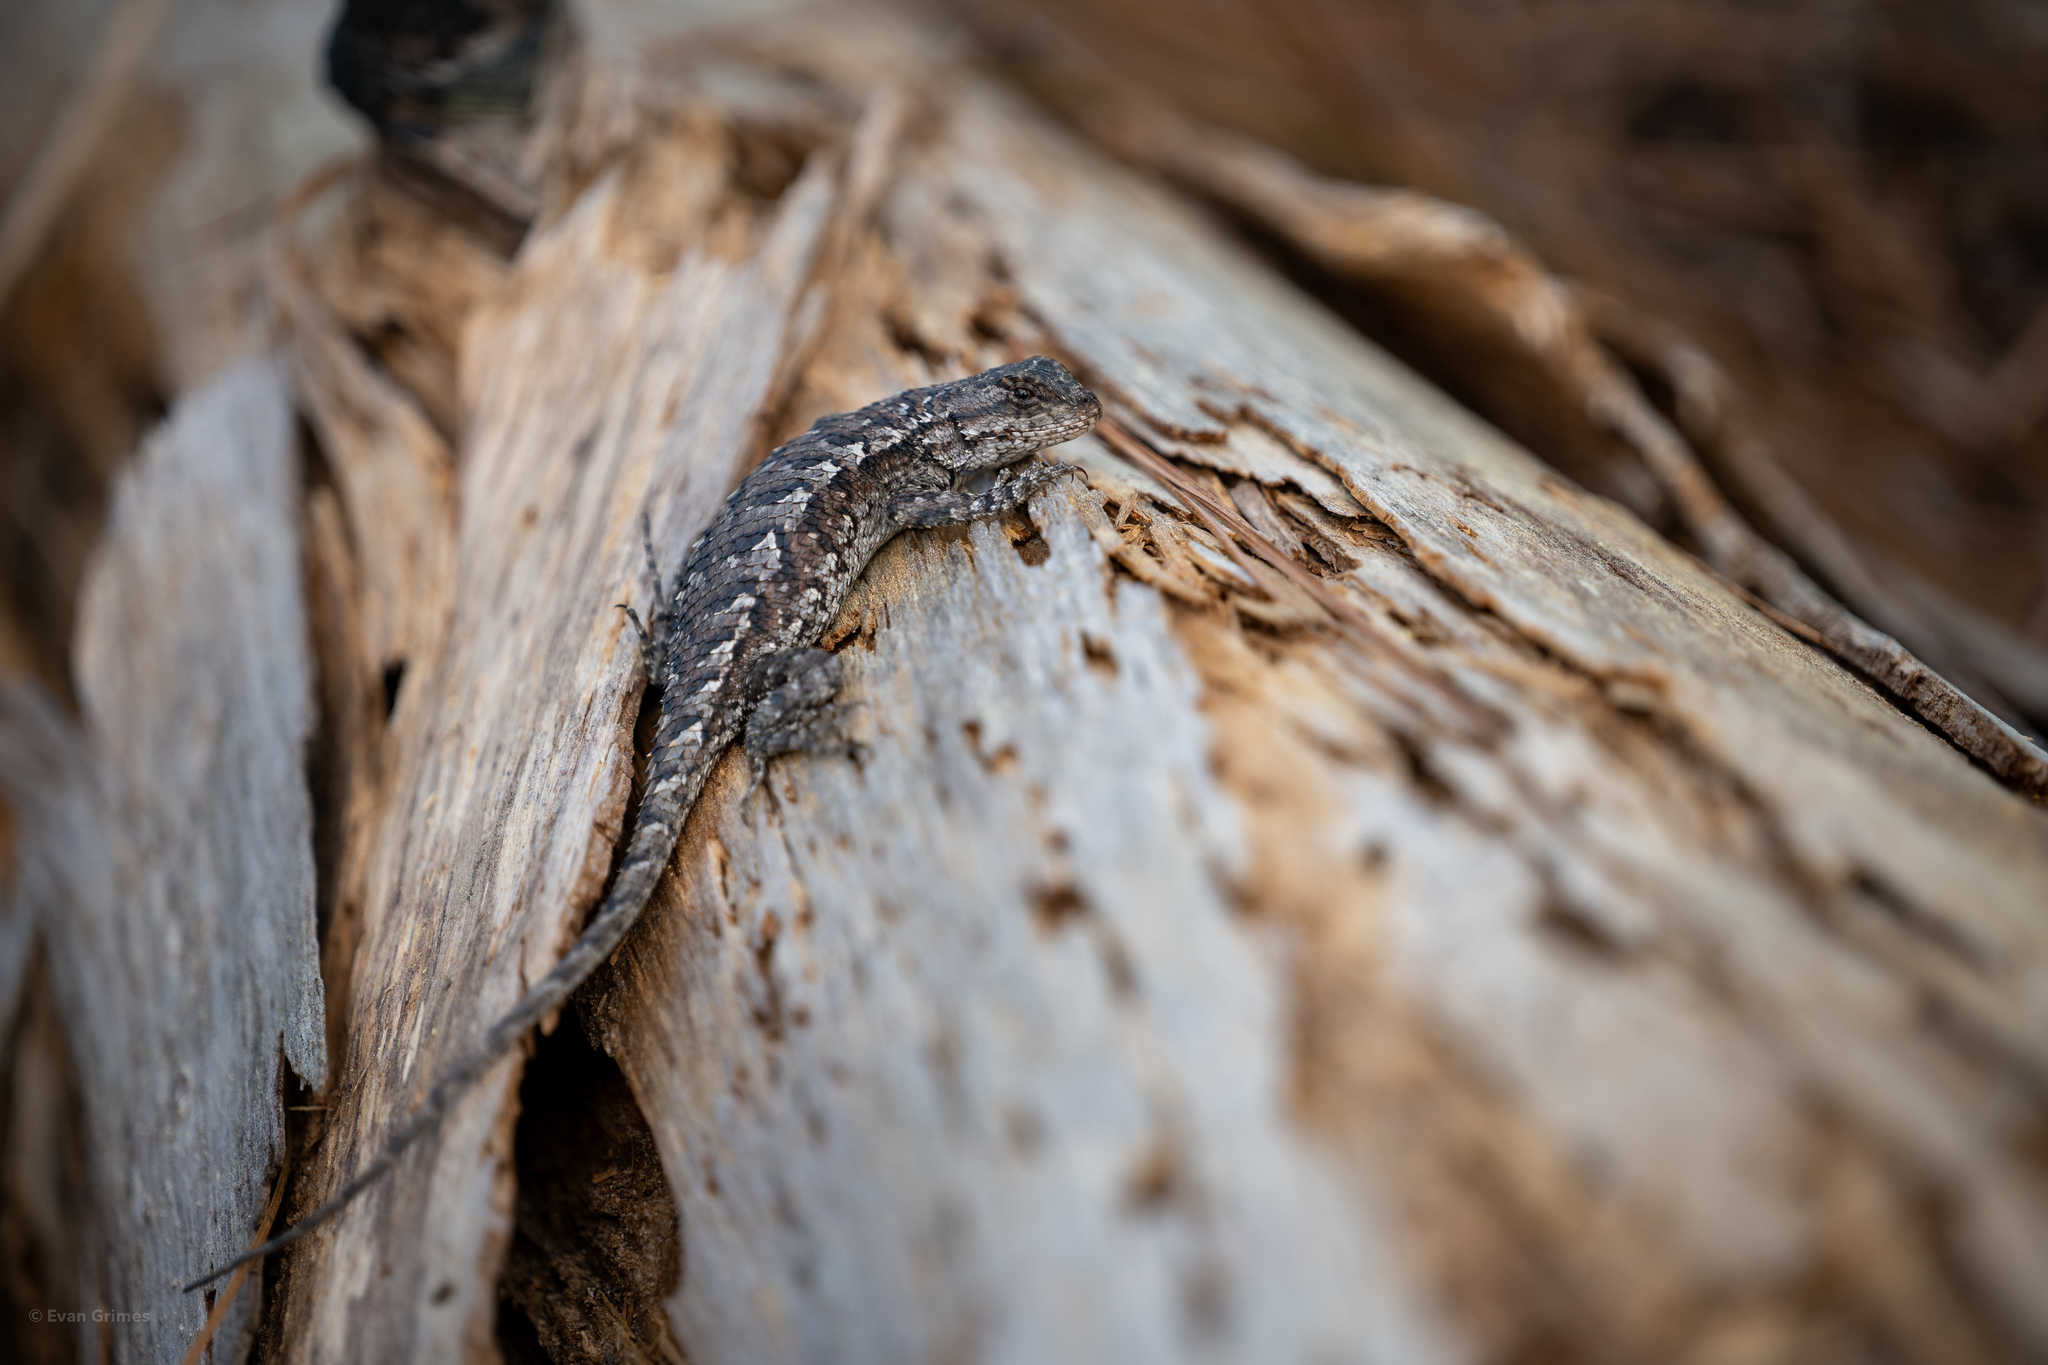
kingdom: Animalia
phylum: Chordata
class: Squamata
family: Phrynosomatidae
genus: Sceloporus
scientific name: Sceloporus undulatus
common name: Eastern fence lizard
